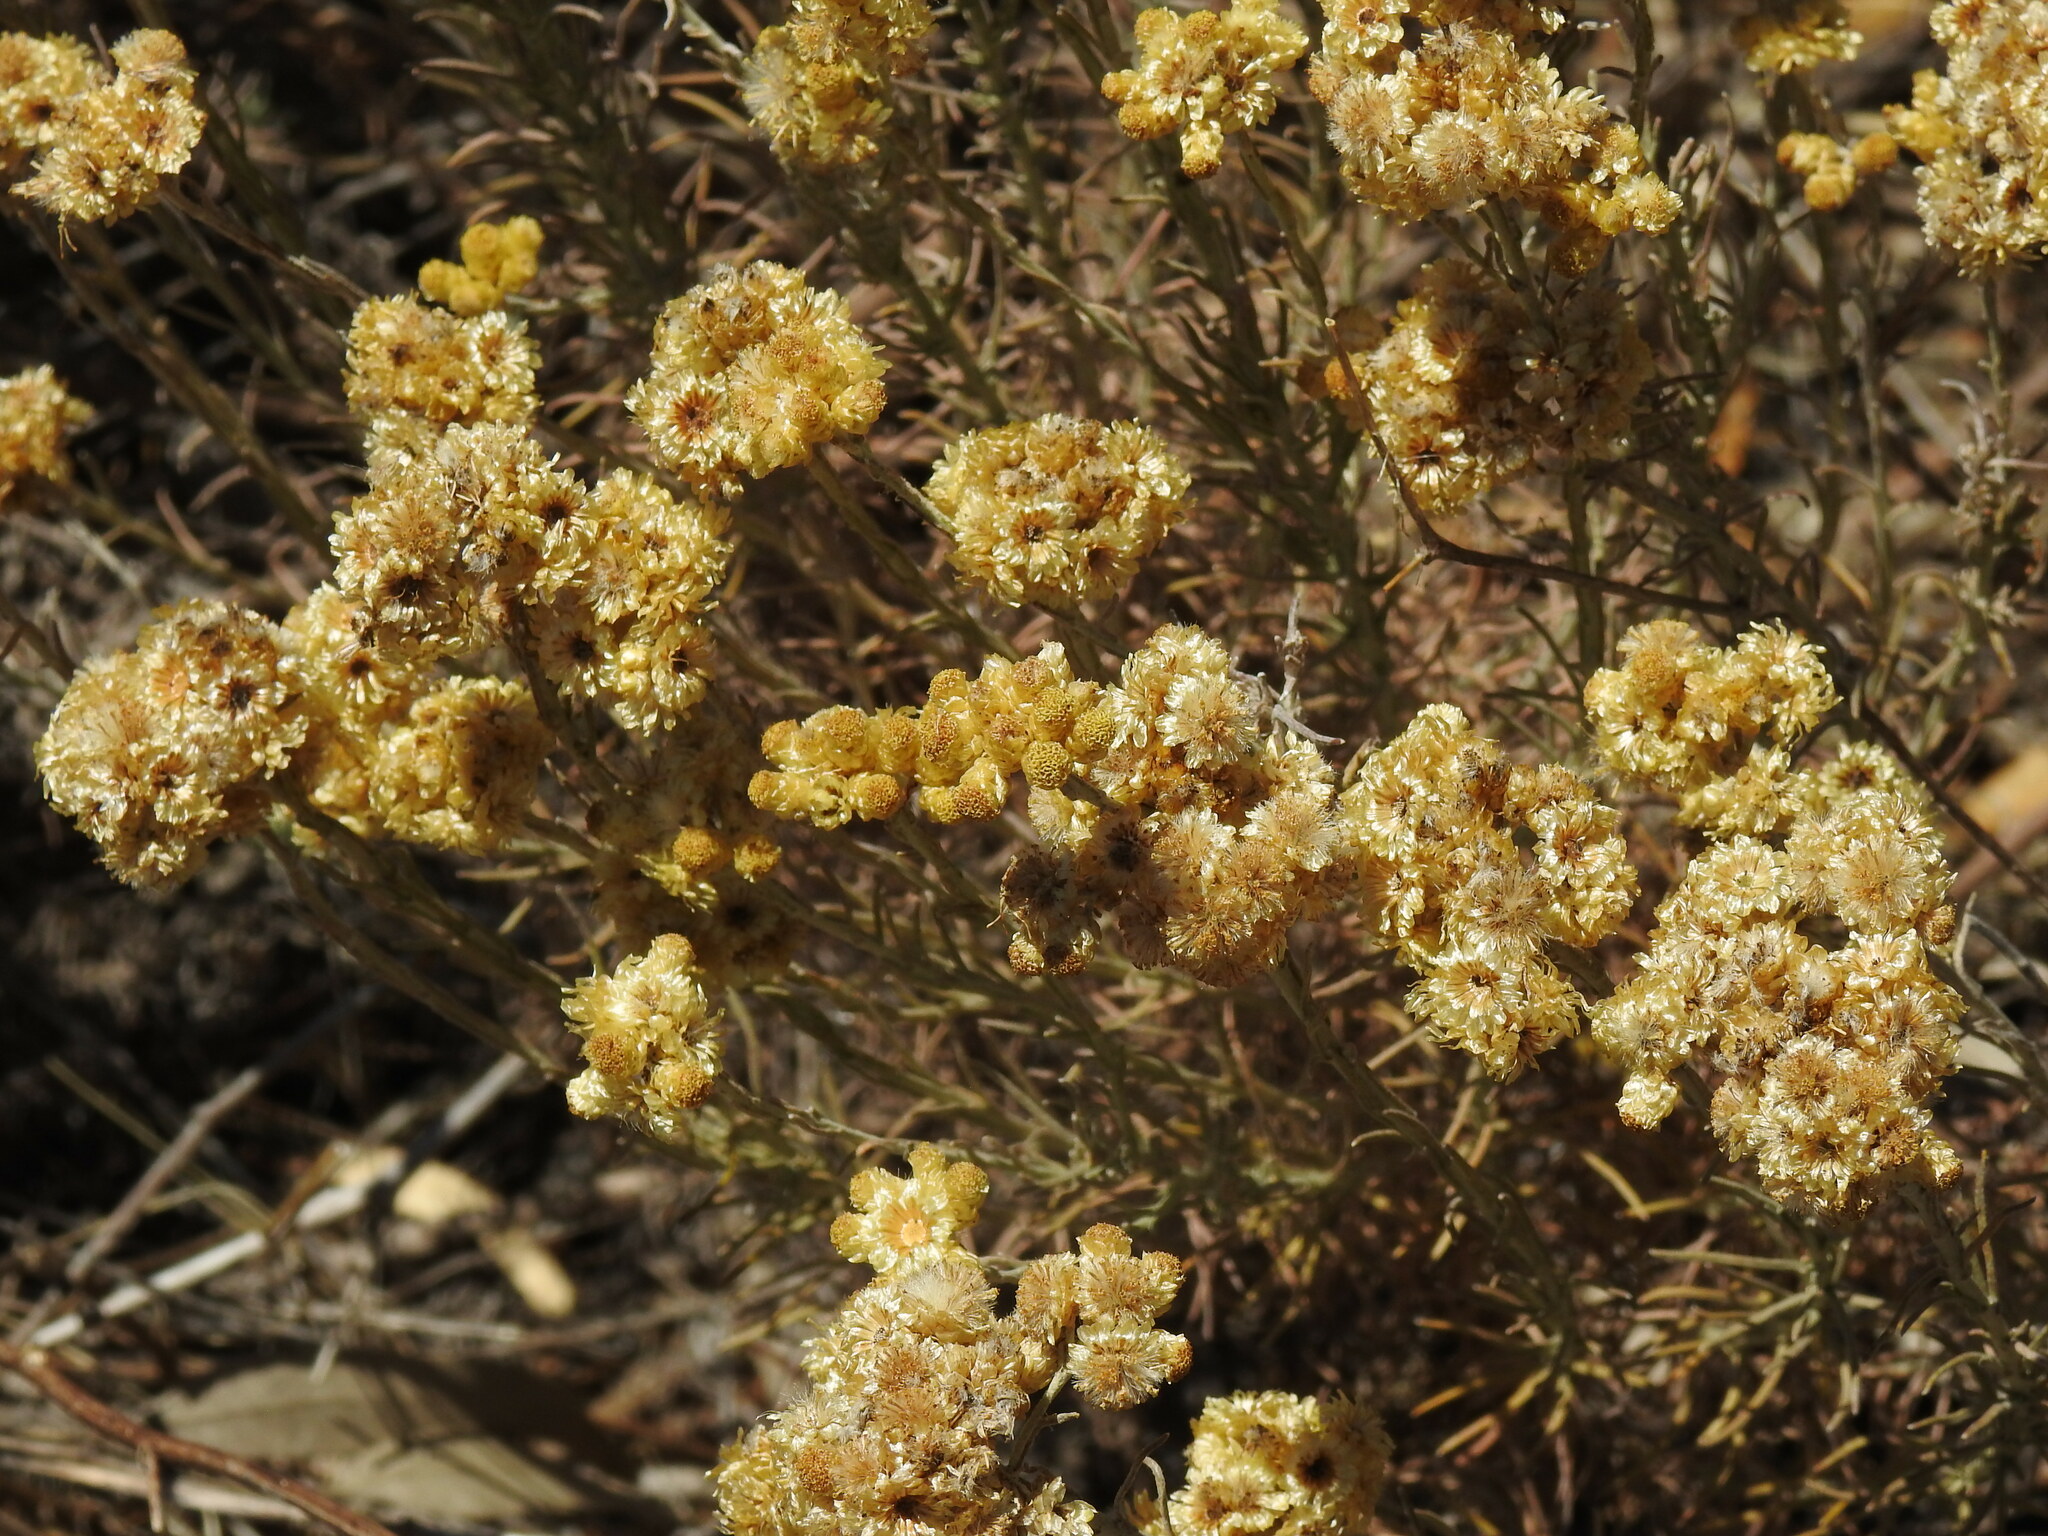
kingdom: Plantae
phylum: Tracheophyta
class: Magnoliopsida
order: Asterales
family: Asteraceae
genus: Helichrysum
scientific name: Helichrysum stoechas
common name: Goldilocks
